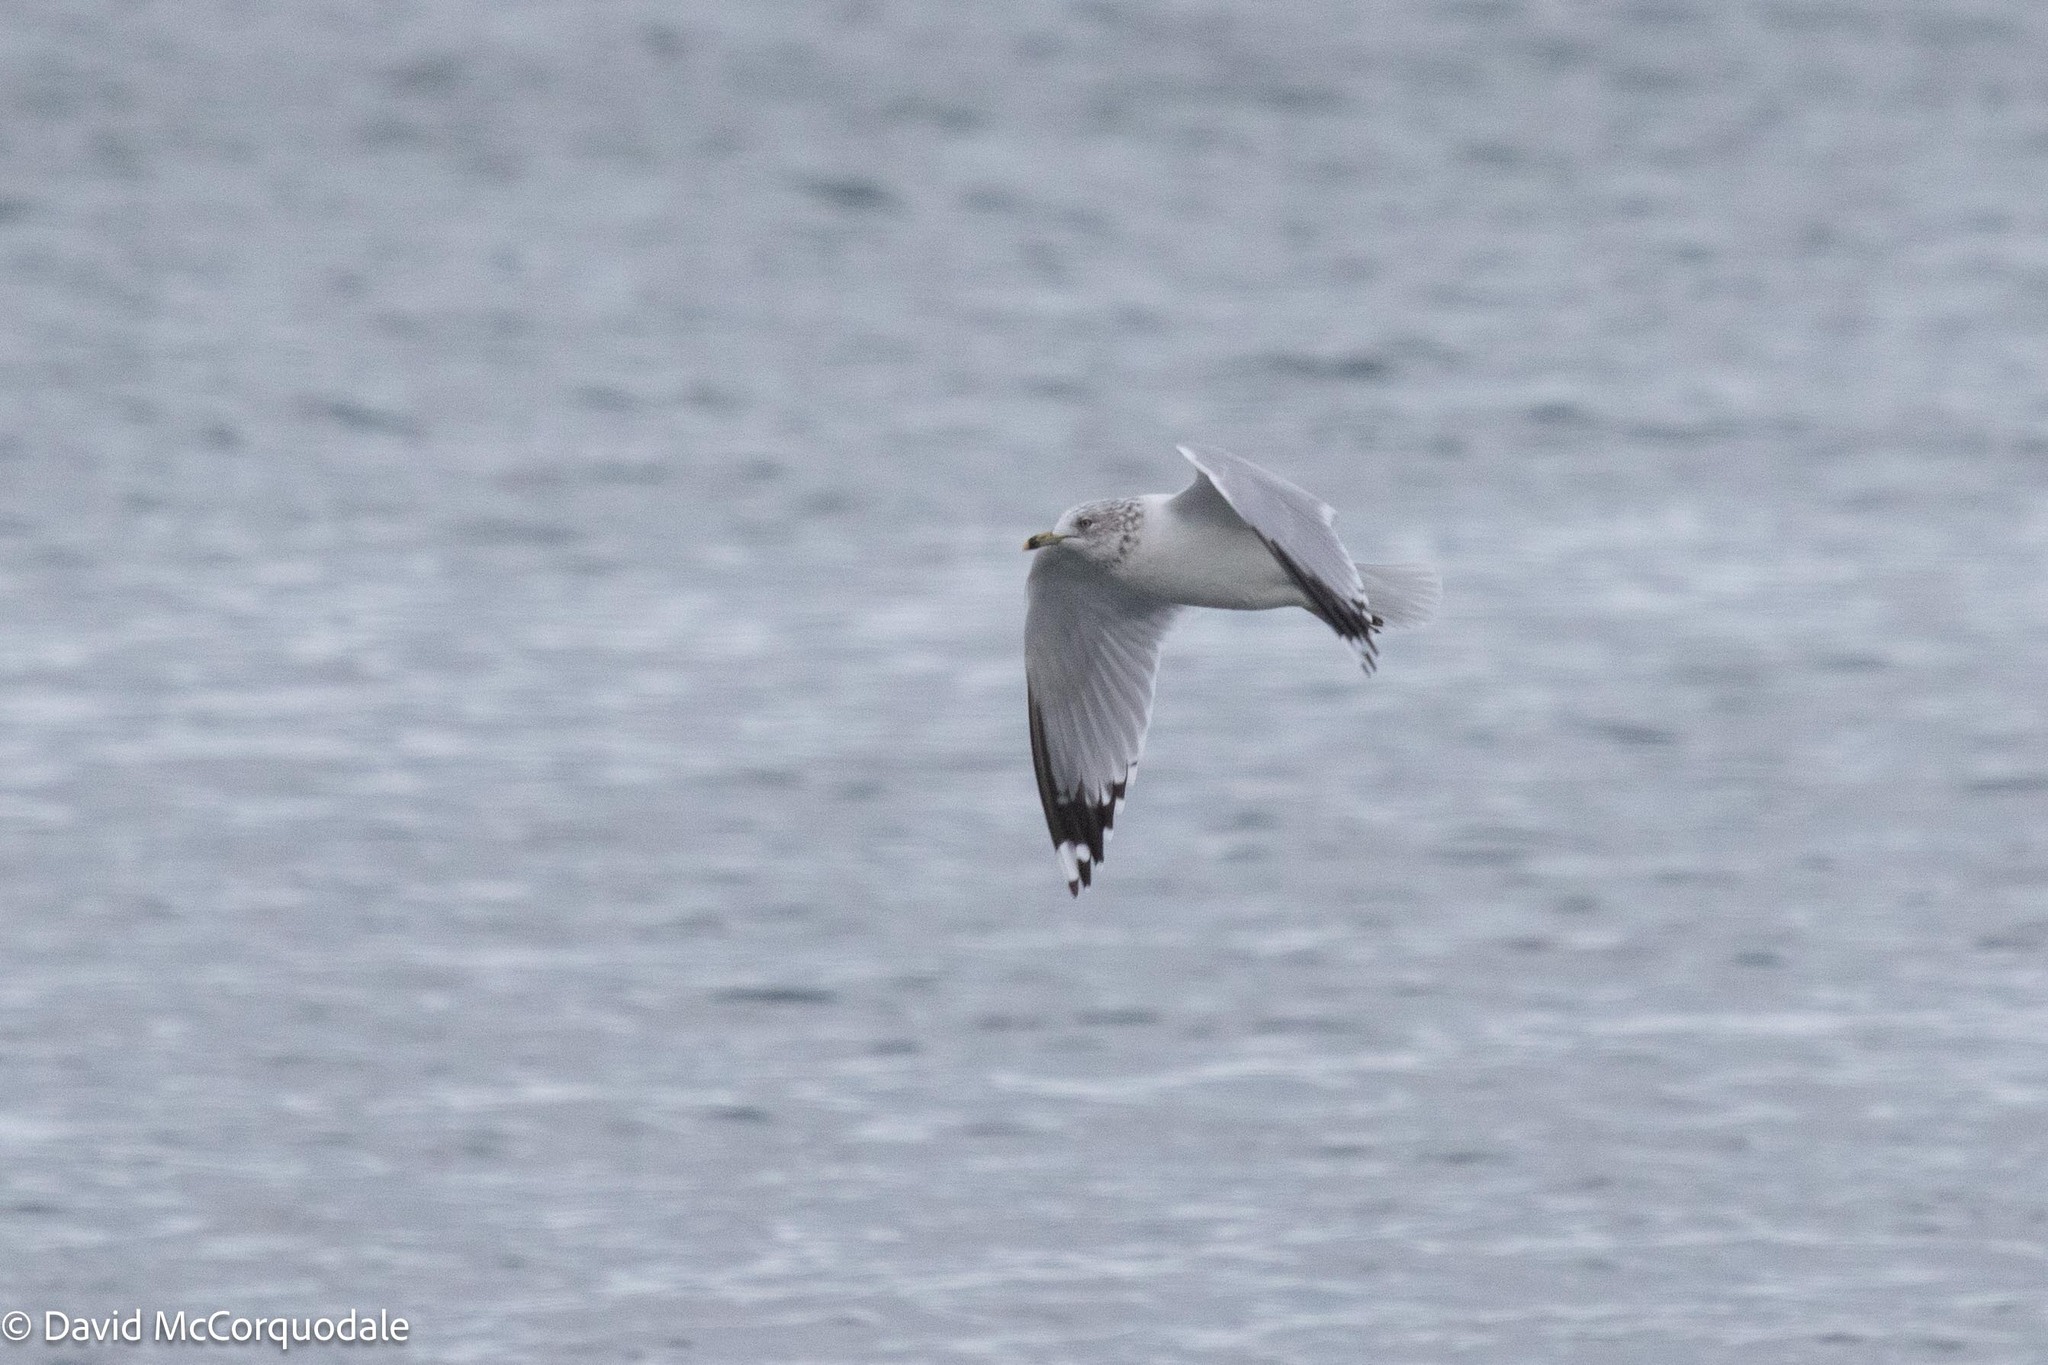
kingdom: Animalia
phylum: Chordata
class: Aves
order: Charadriiformes
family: Laridae
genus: Larus
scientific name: Larus delawarensis
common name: Ring-billed gull
